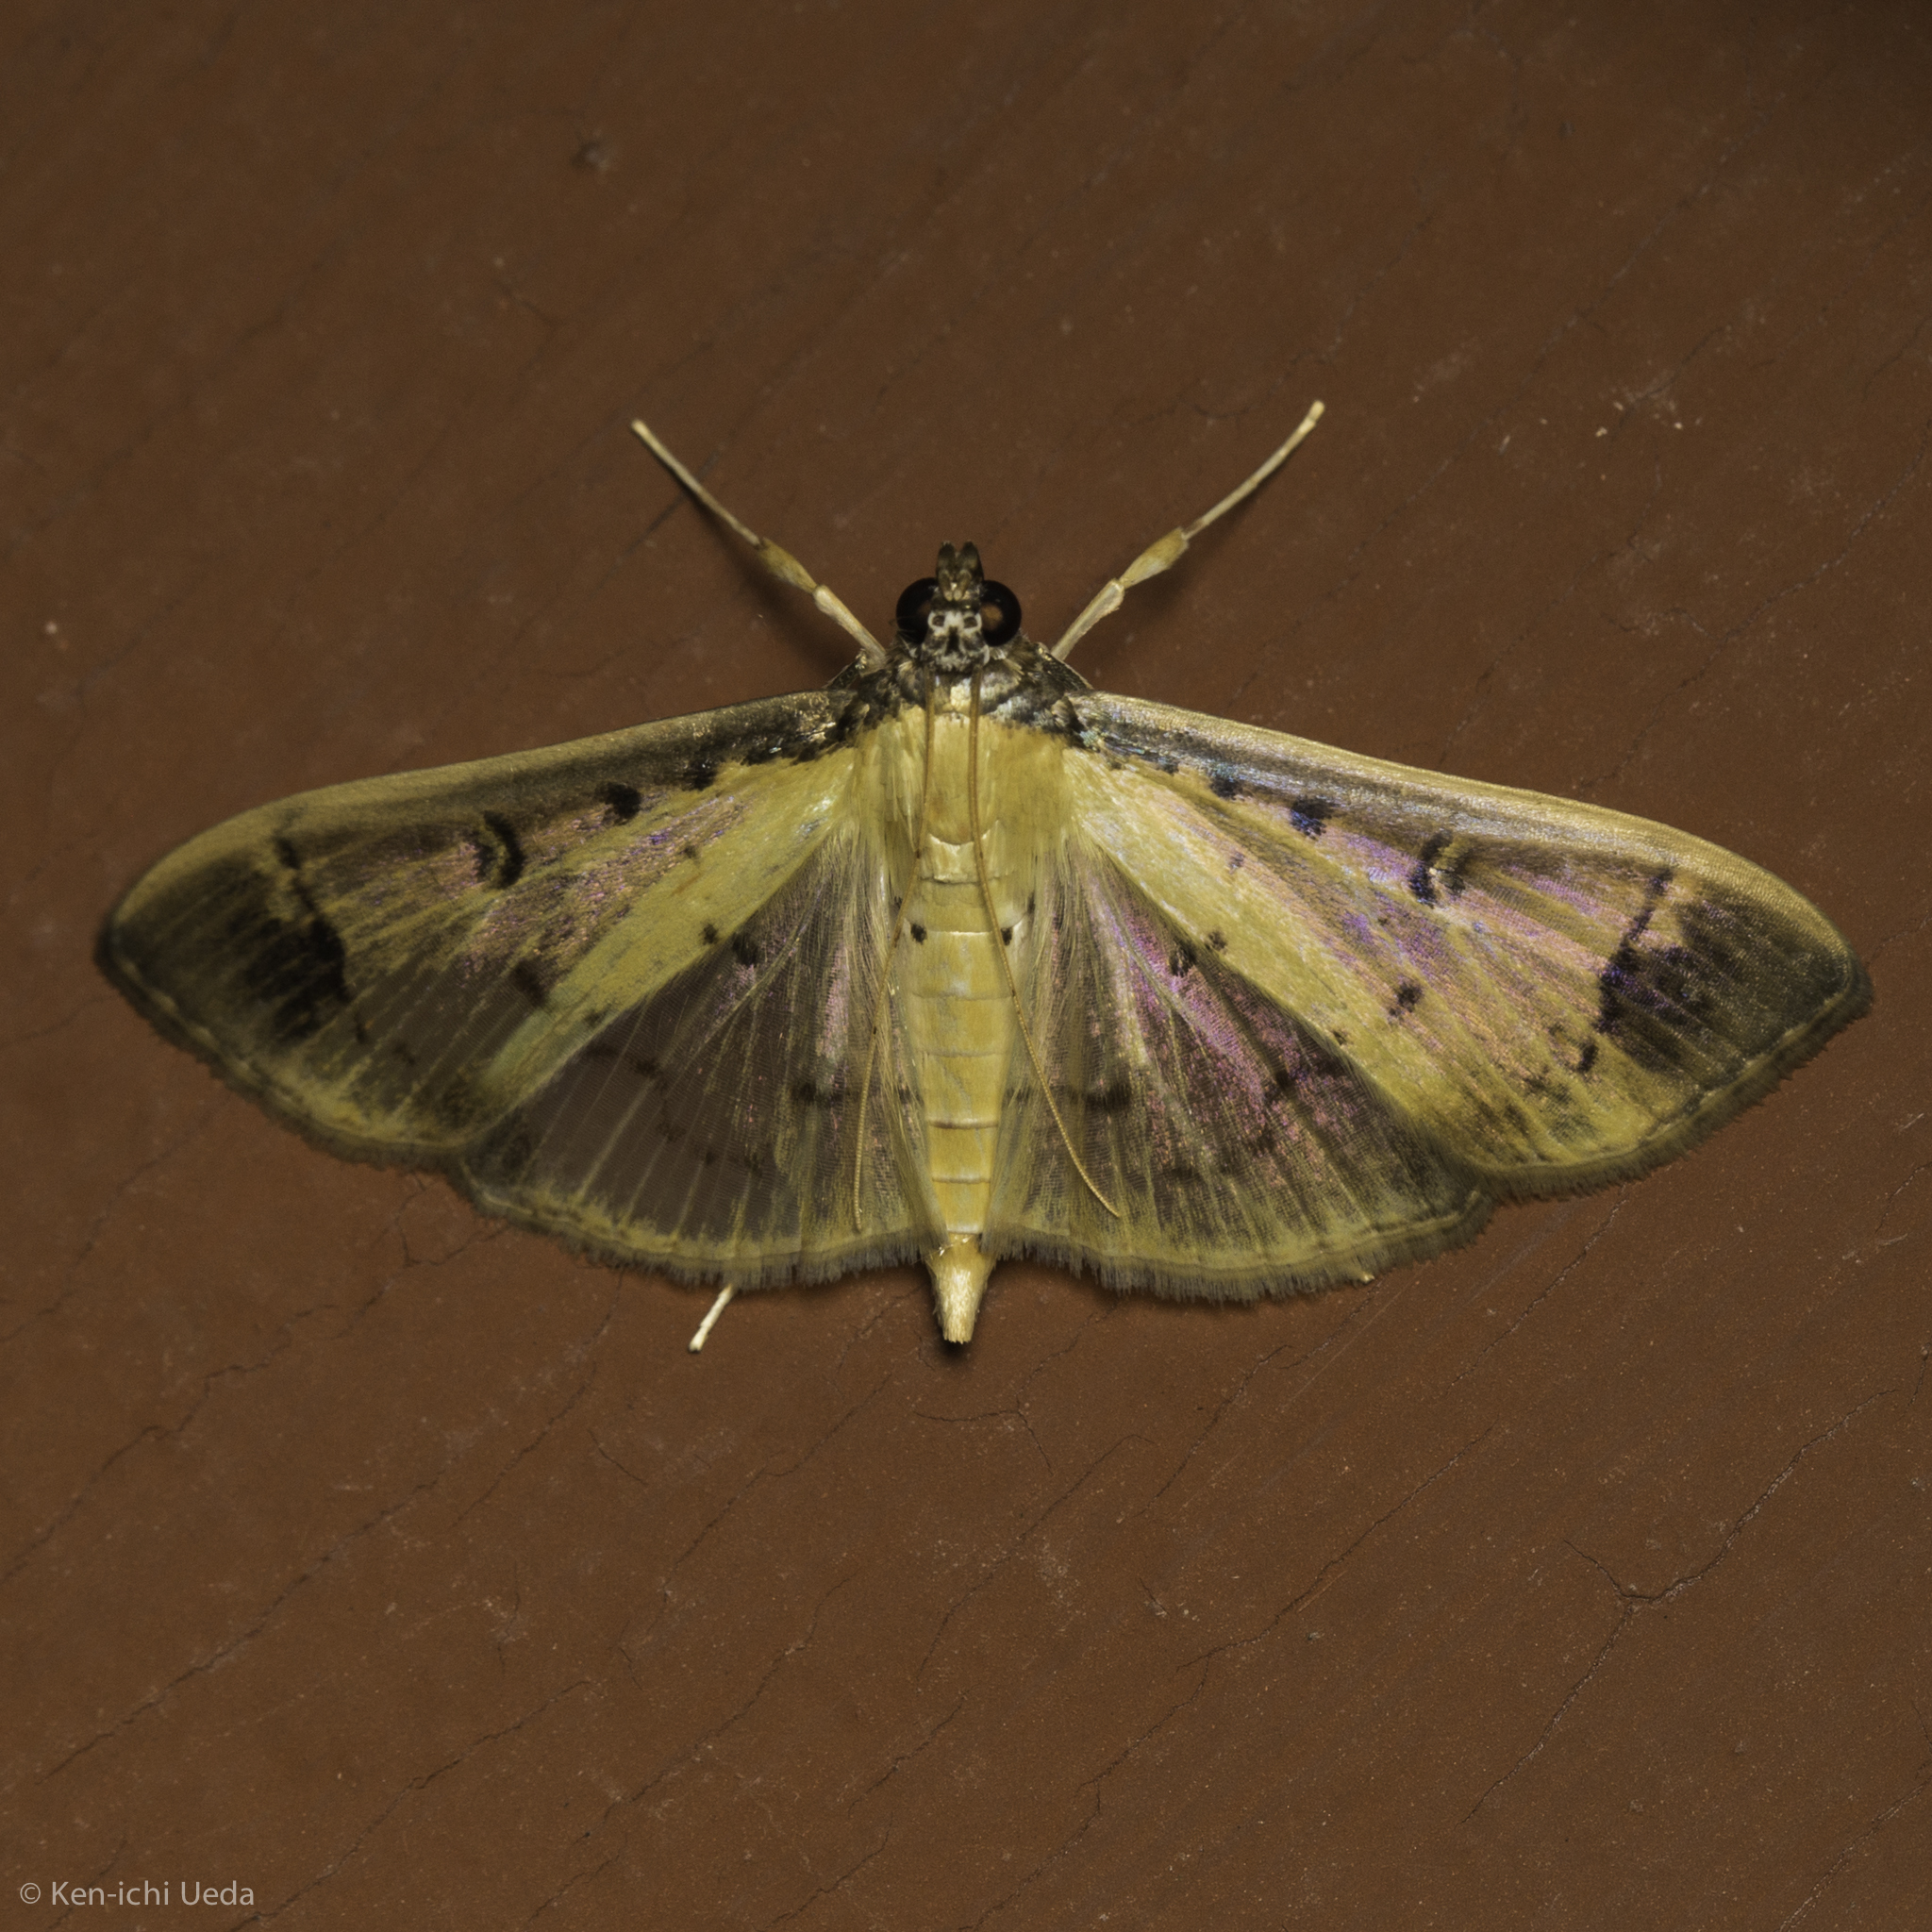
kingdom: Animalia
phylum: Arthropoda
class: Insecta
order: Lepidoptera
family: Crambidae
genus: Eulepte
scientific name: Eulepte concordalis
